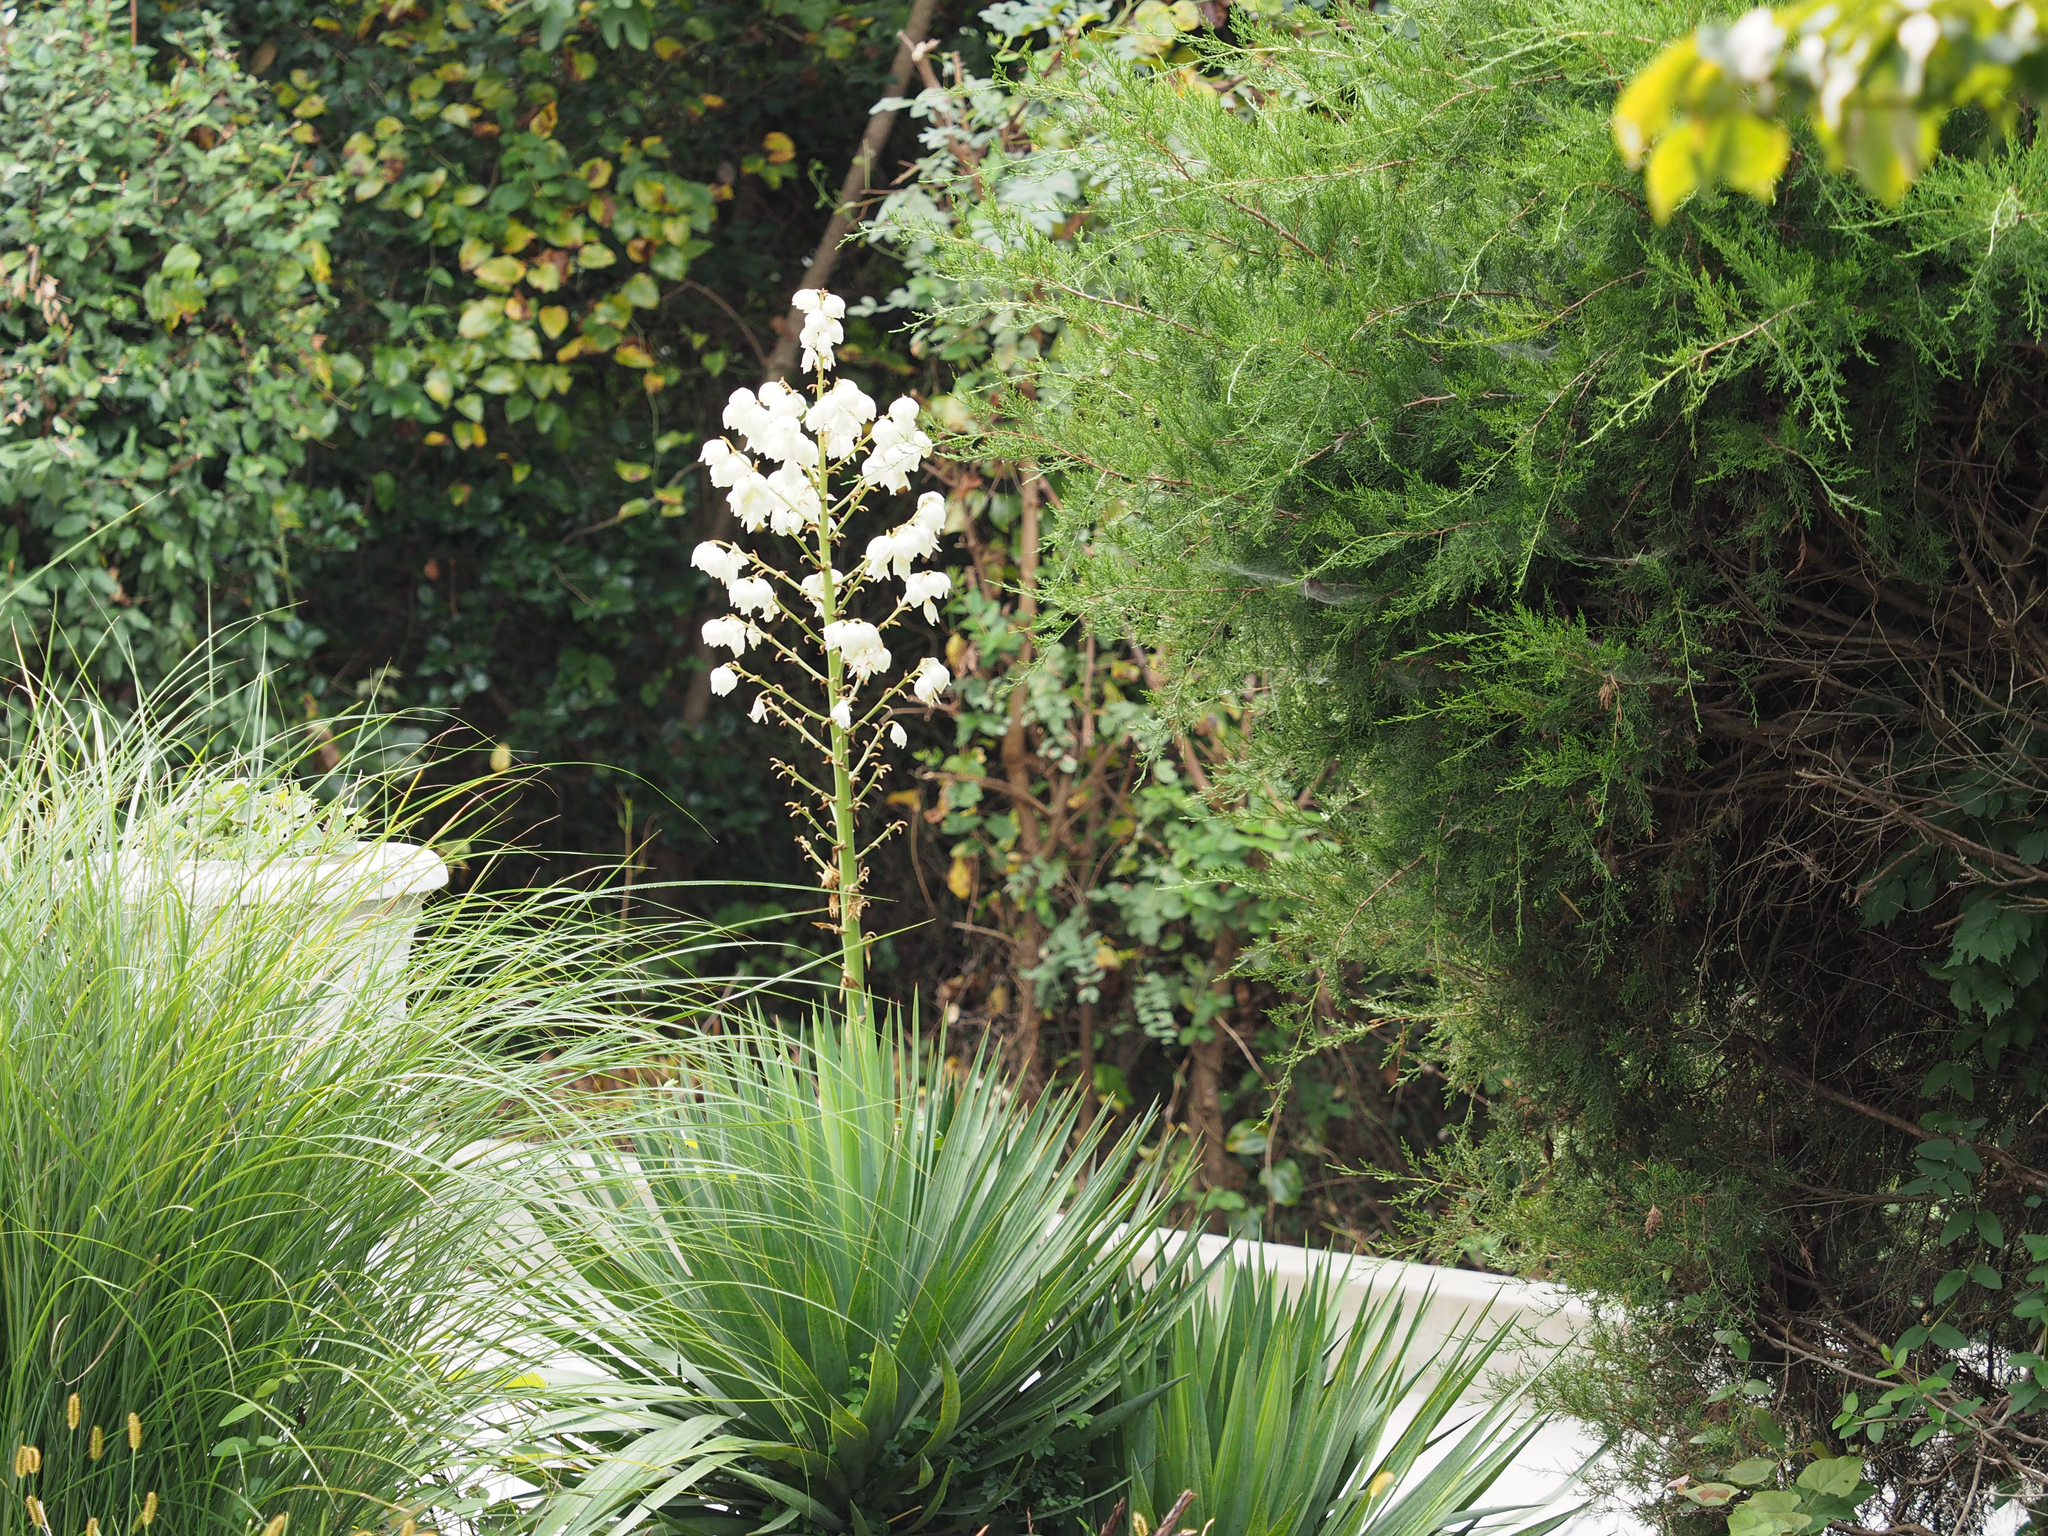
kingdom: Plantae
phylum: Tracheophyta
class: Liliopsida
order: Asparagales
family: Asparagaceae
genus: Yucca
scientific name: Yucca filamentosa
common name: Adam's-needle
